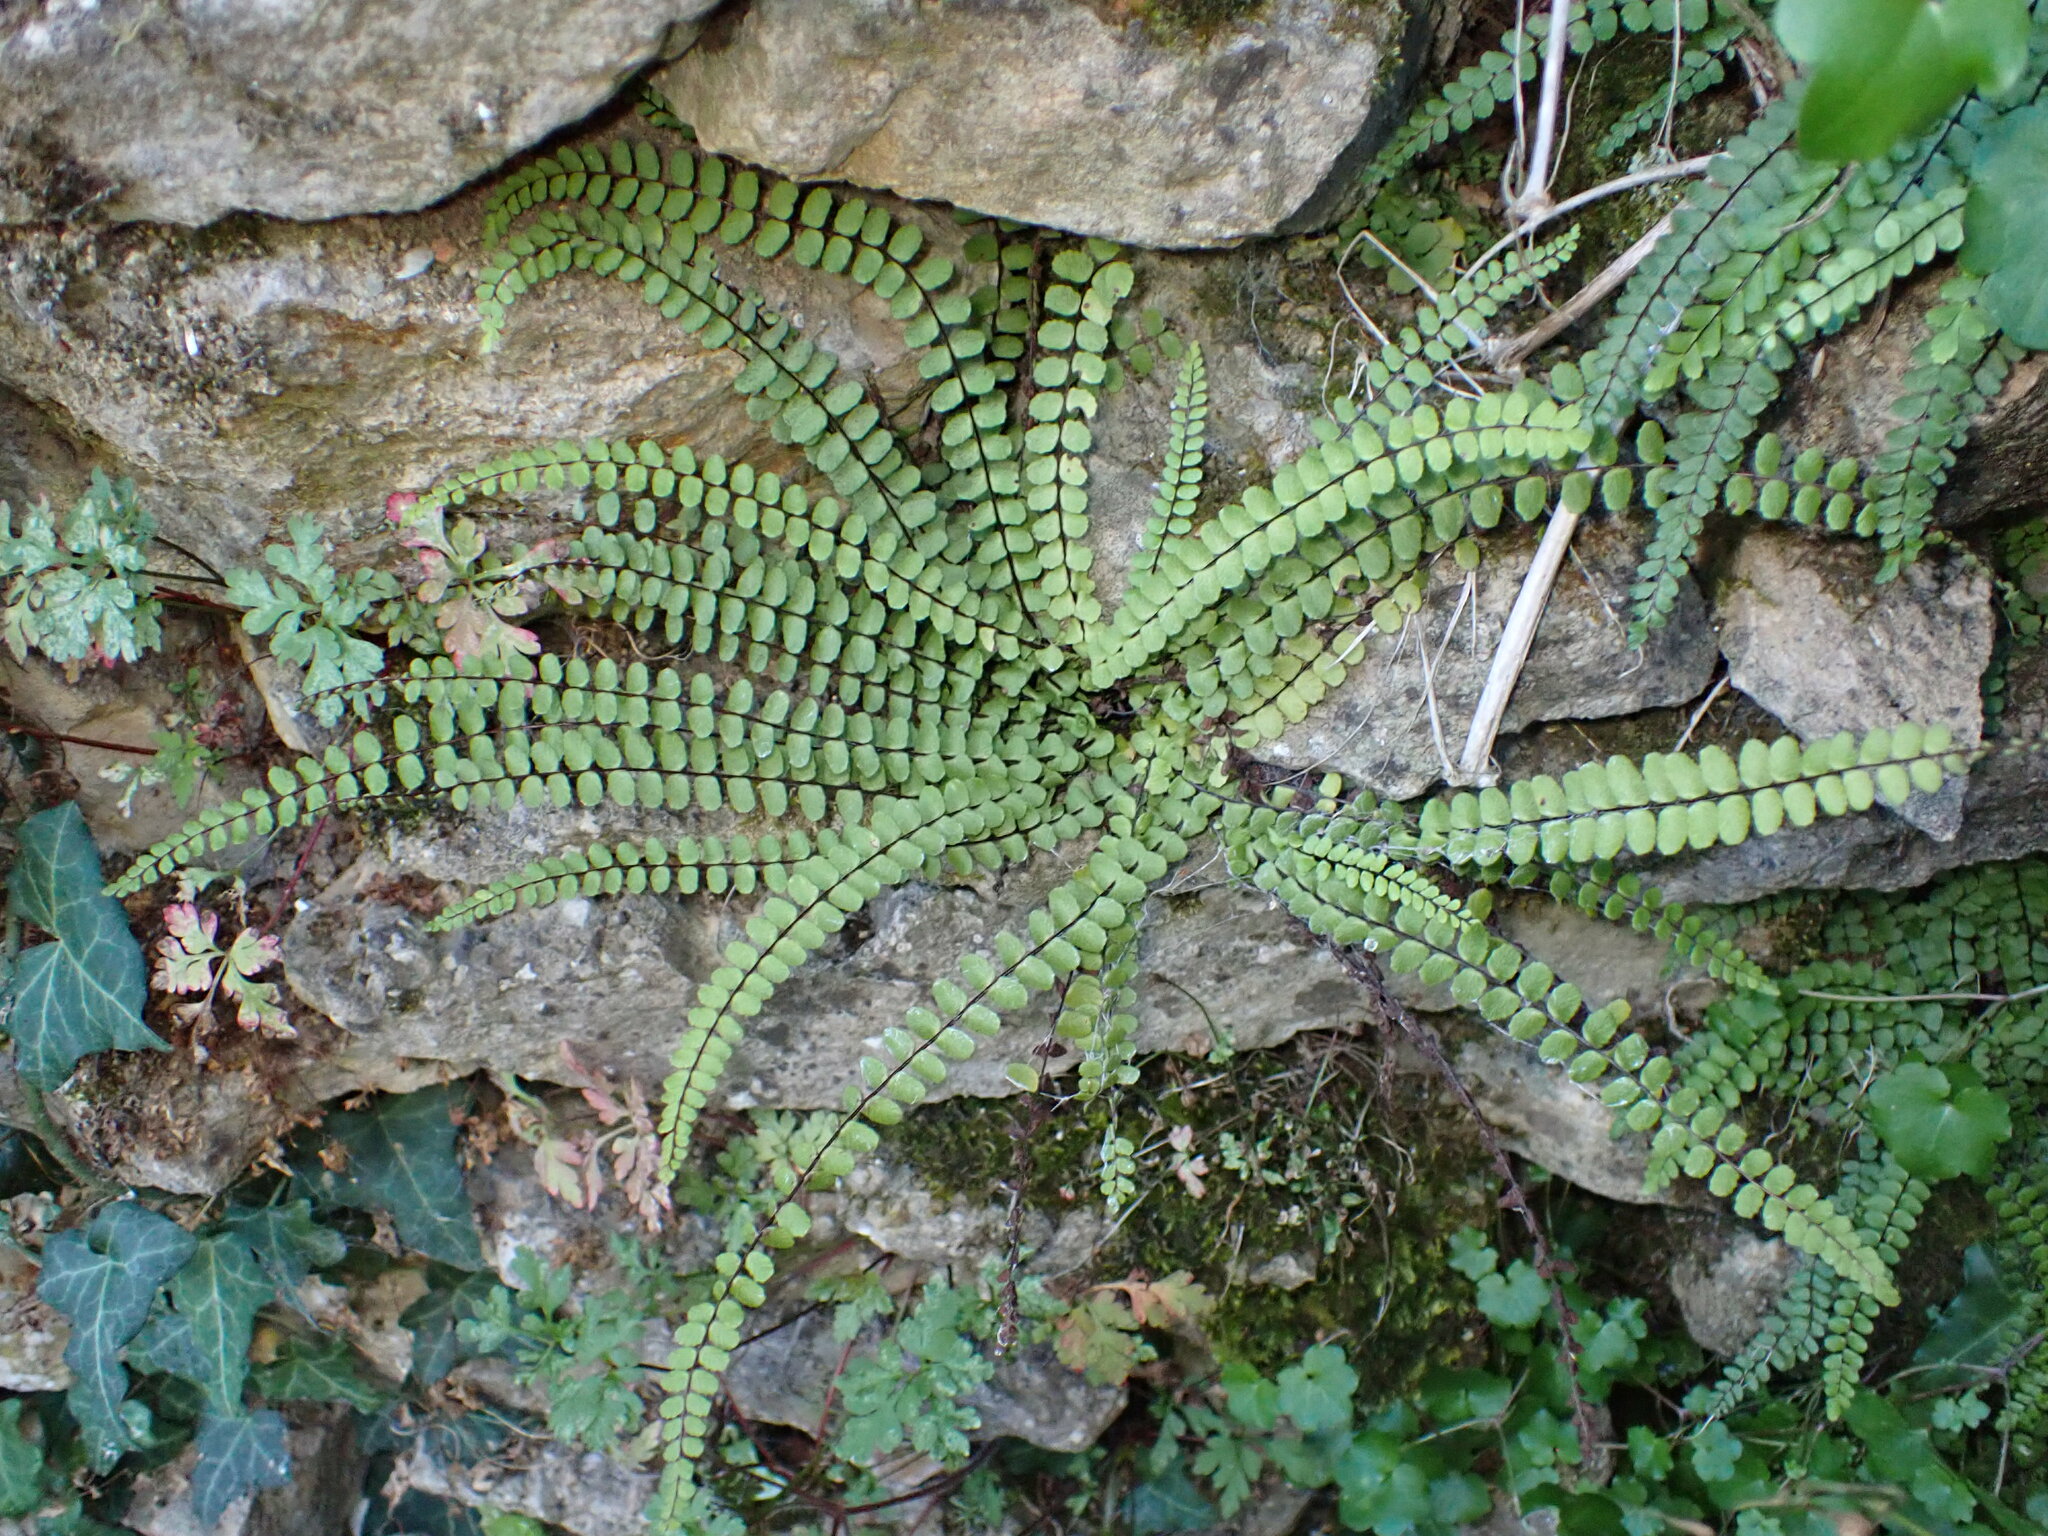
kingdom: Plantae
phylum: Tracheophyta
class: Polypodiopsida
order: Polypodiales
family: Aspleniaceae
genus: Asplenium
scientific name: Asplenium trichomanes
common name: Maidenhair spleenwort
